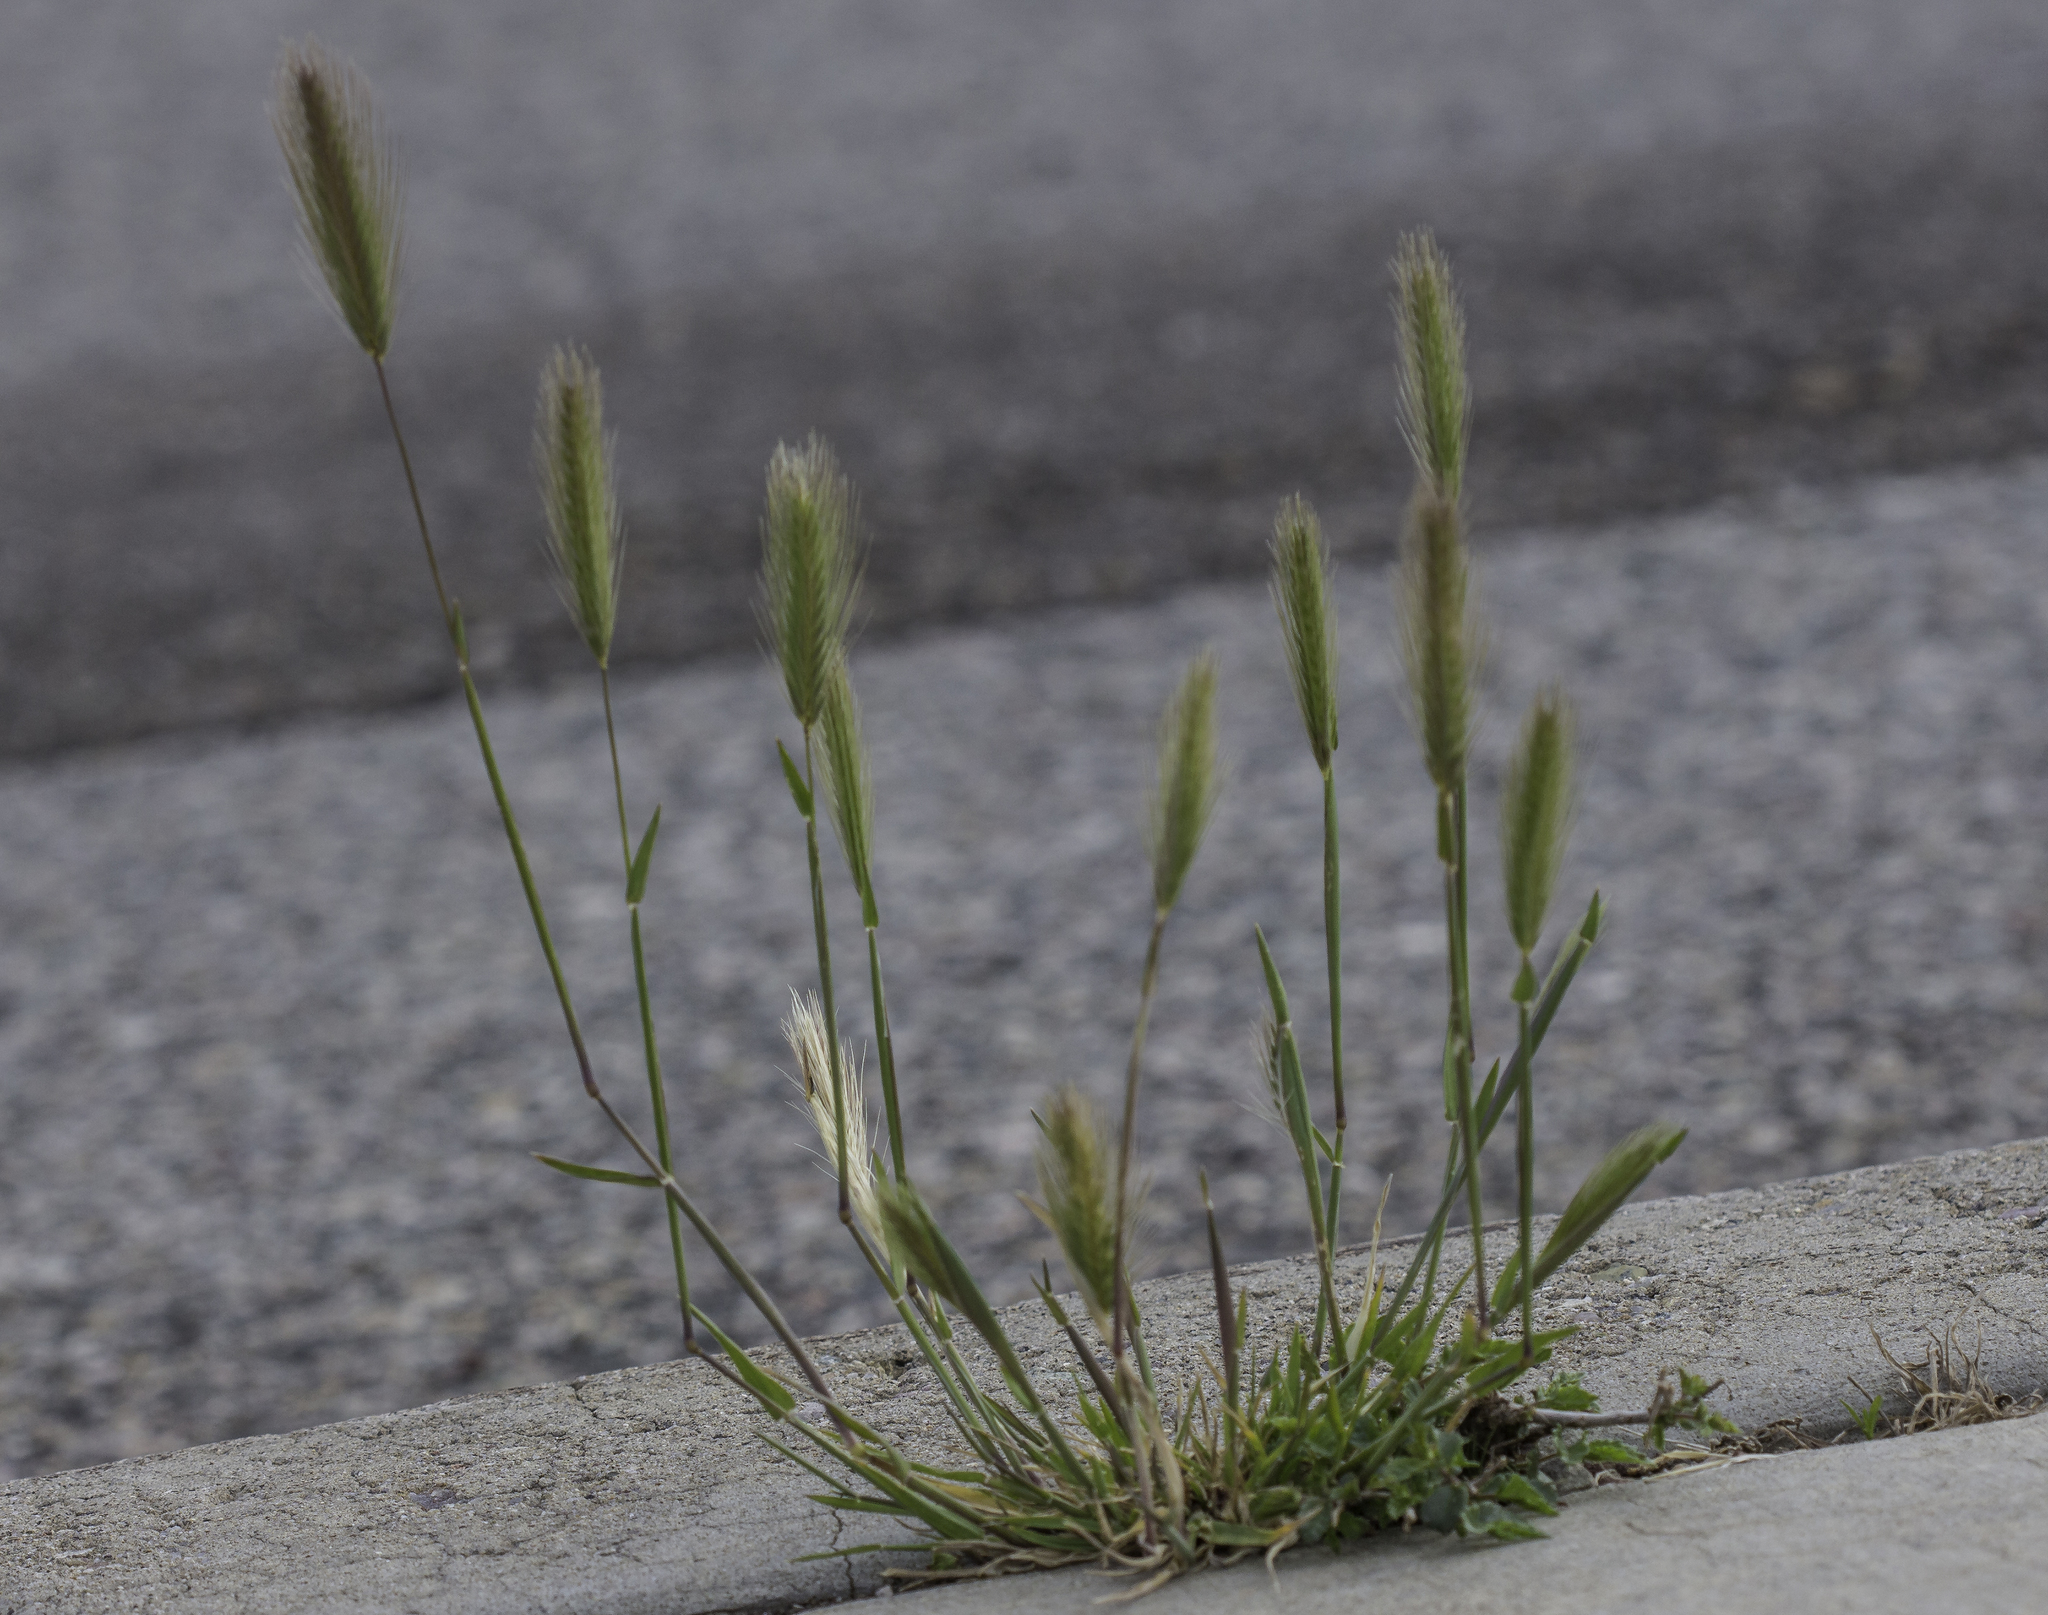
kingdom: Plantae
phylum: Tracheophyta
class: Liliopsida
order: Poales
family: Poaceae
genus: Hordeum
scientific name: Hordeum murinum
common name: Wall barley
